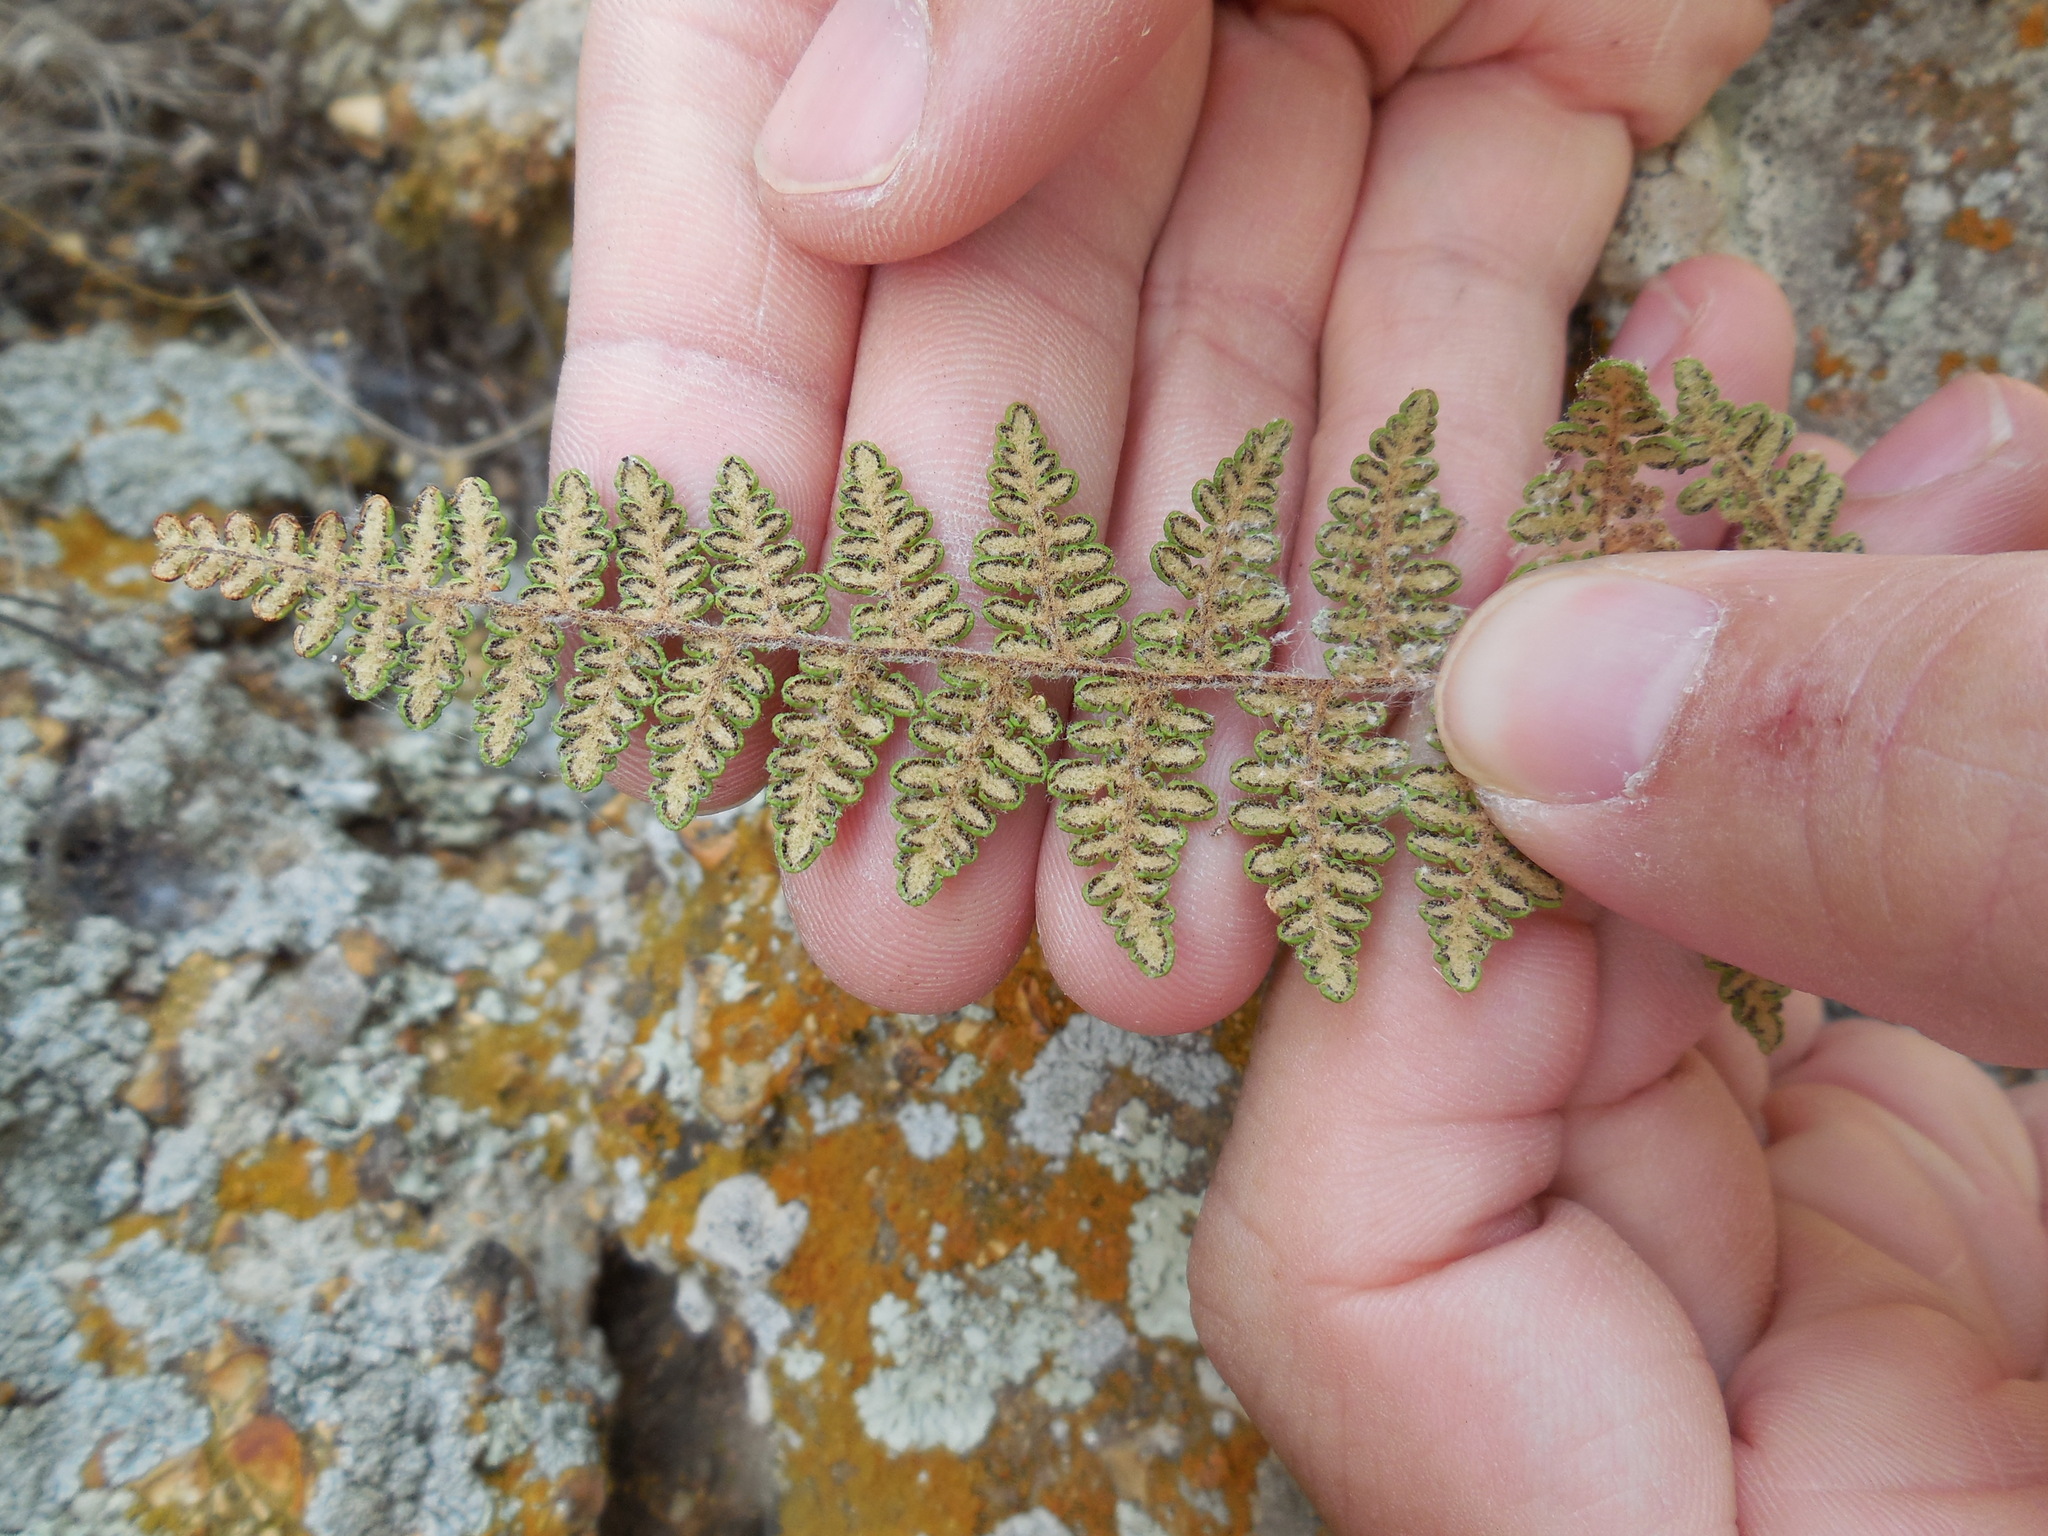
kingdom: Plantae
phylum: Tracheophyta
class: Polypodiopsida
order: Polypodiales
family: Pteridaceae
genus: Myriopteris
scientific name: Myriopteris tomentosa
